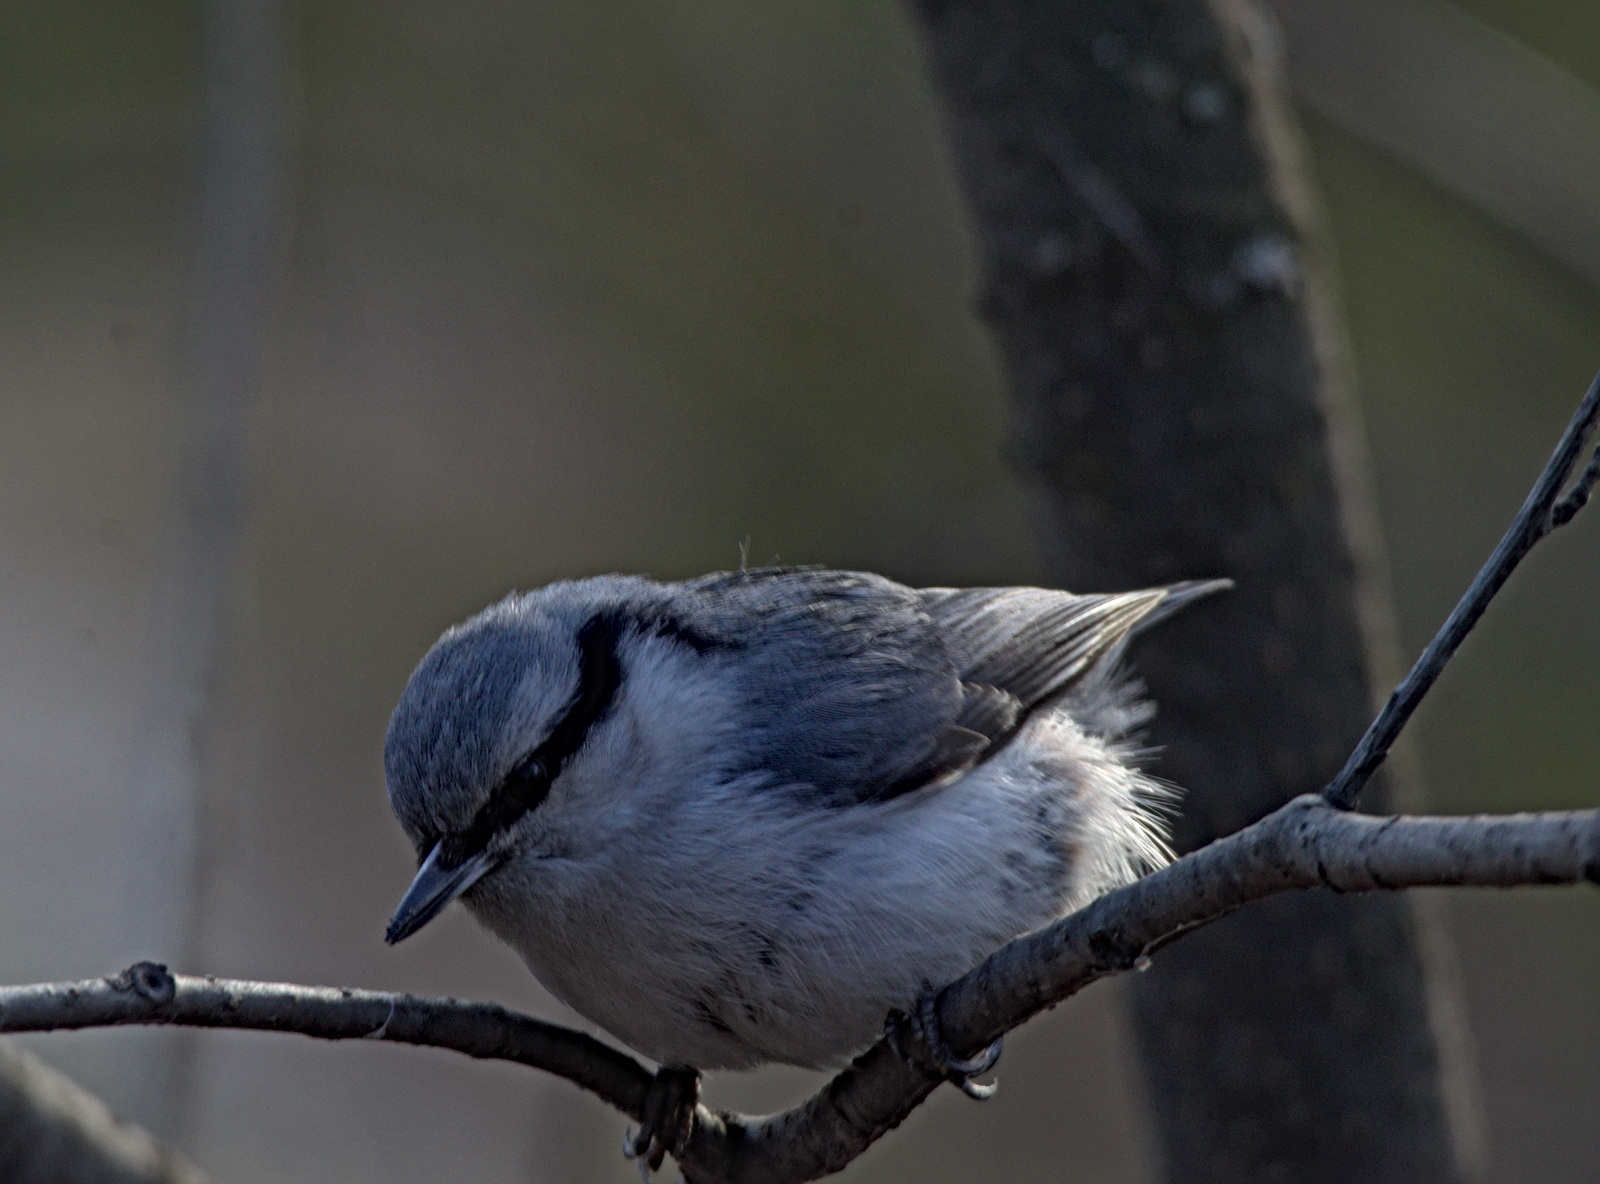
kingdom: Animalia
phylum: Chordata
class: Aves
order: Passeriformes
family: Sittidae
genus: Sitta
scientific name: Sitta europaea
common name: Eurasian nuthatch
